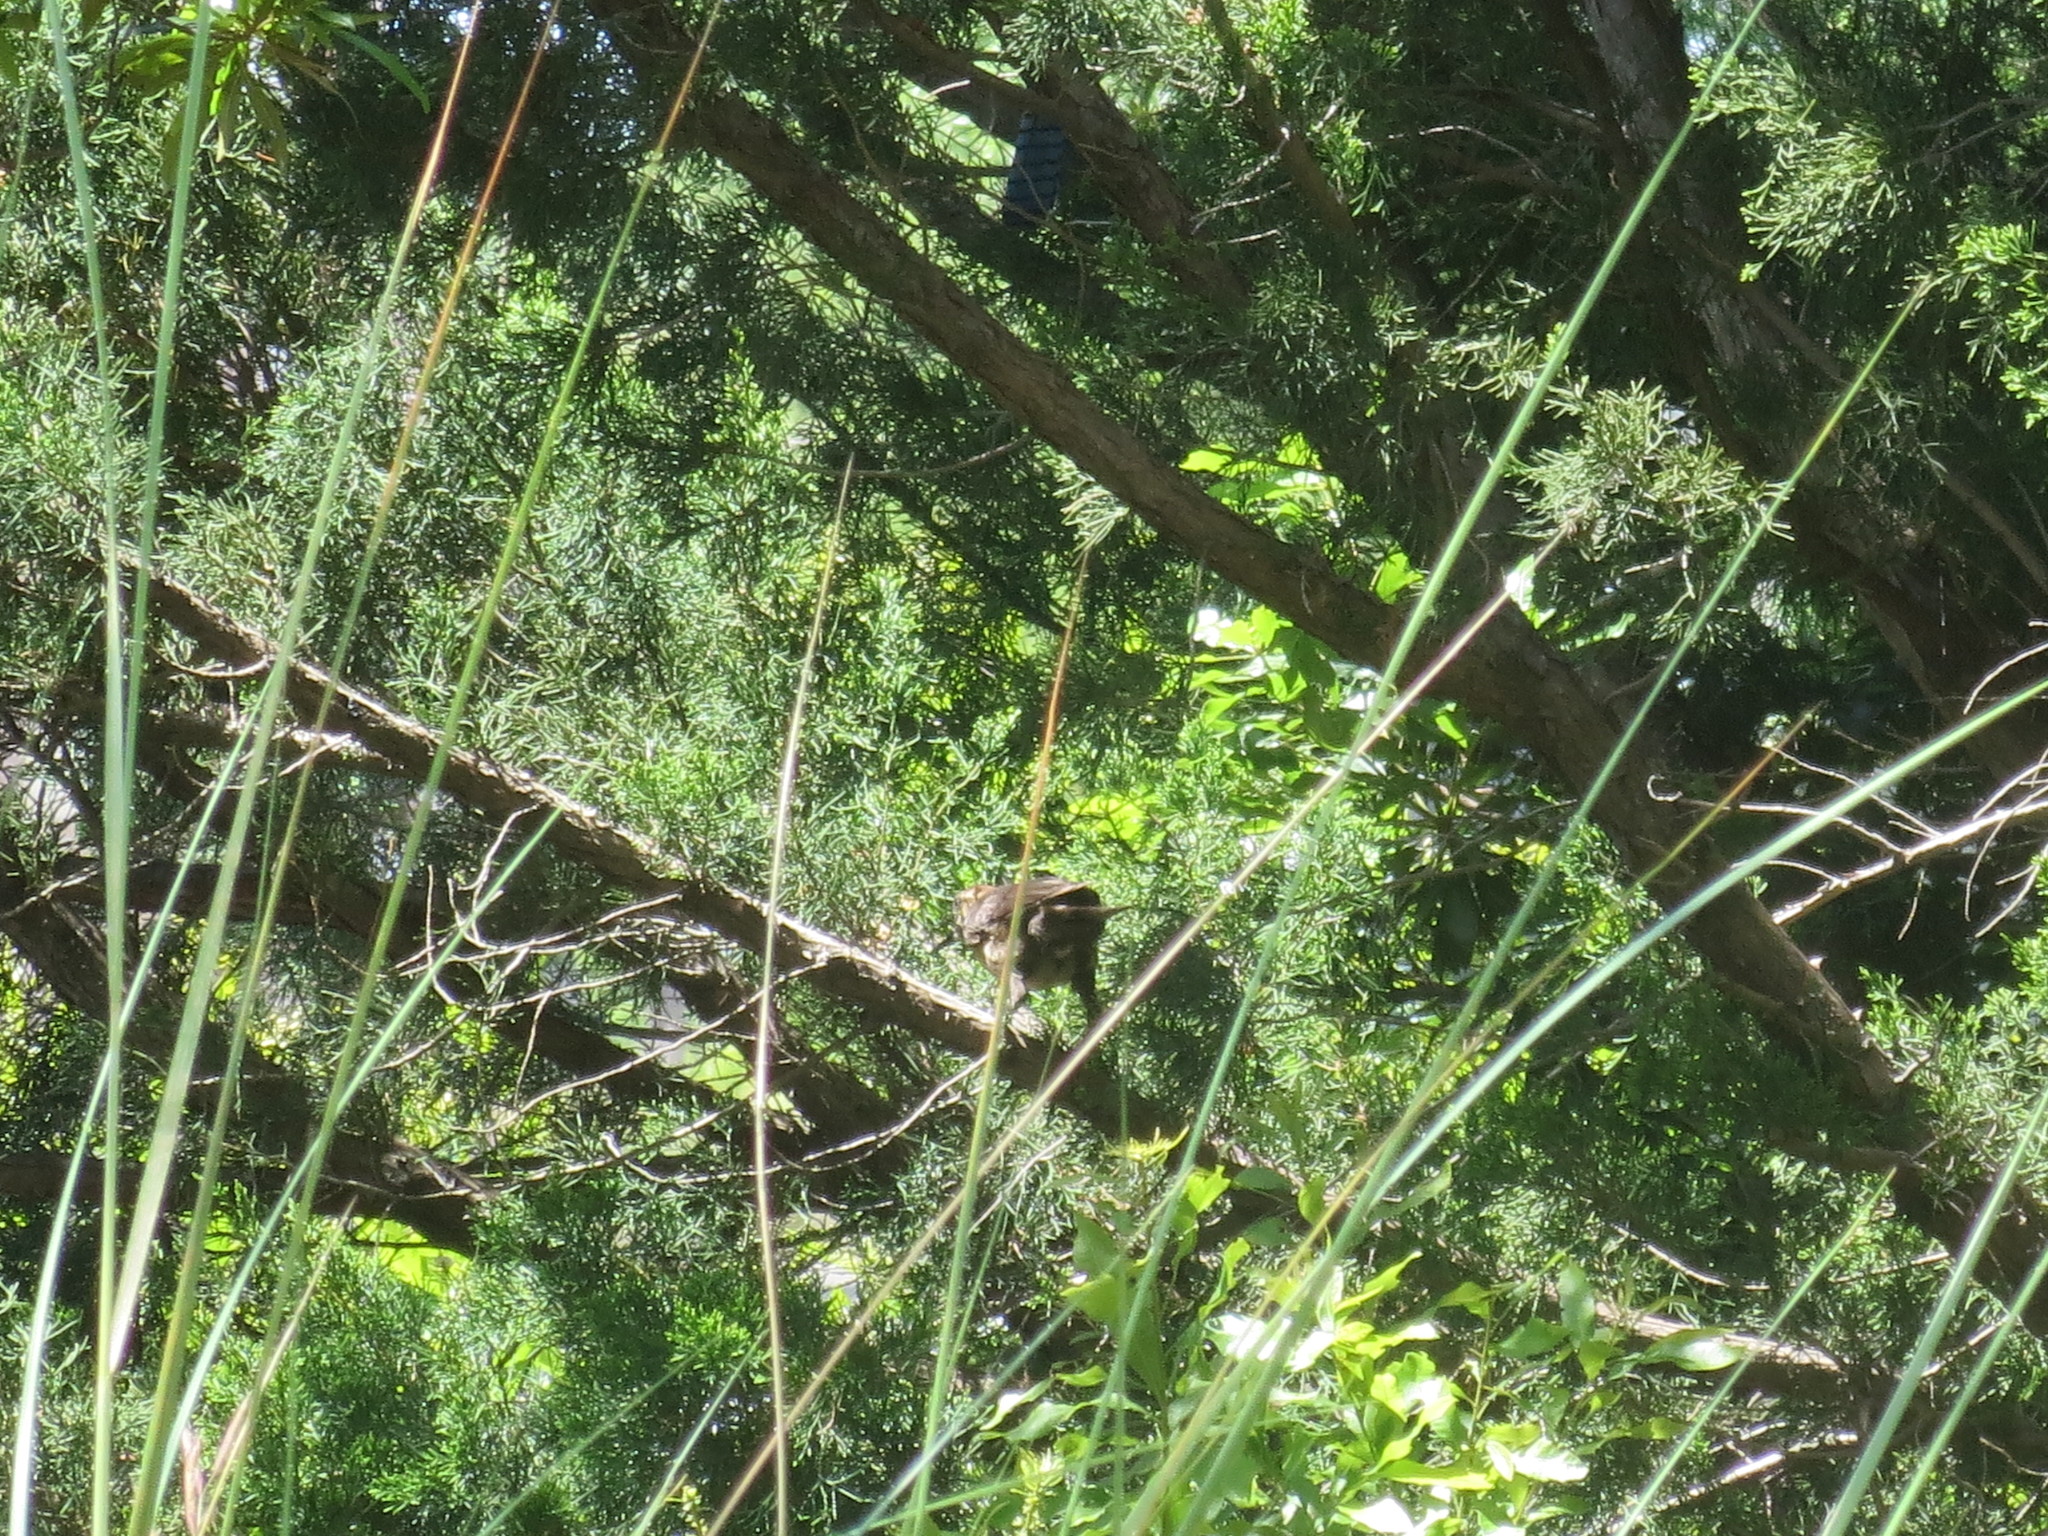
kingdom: Animalia
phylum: Chordata
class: Aves
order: Passeriformes
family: Icteridae
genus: Quiscalus
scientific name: Quiscalus major
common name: Boat-tailed grackle
